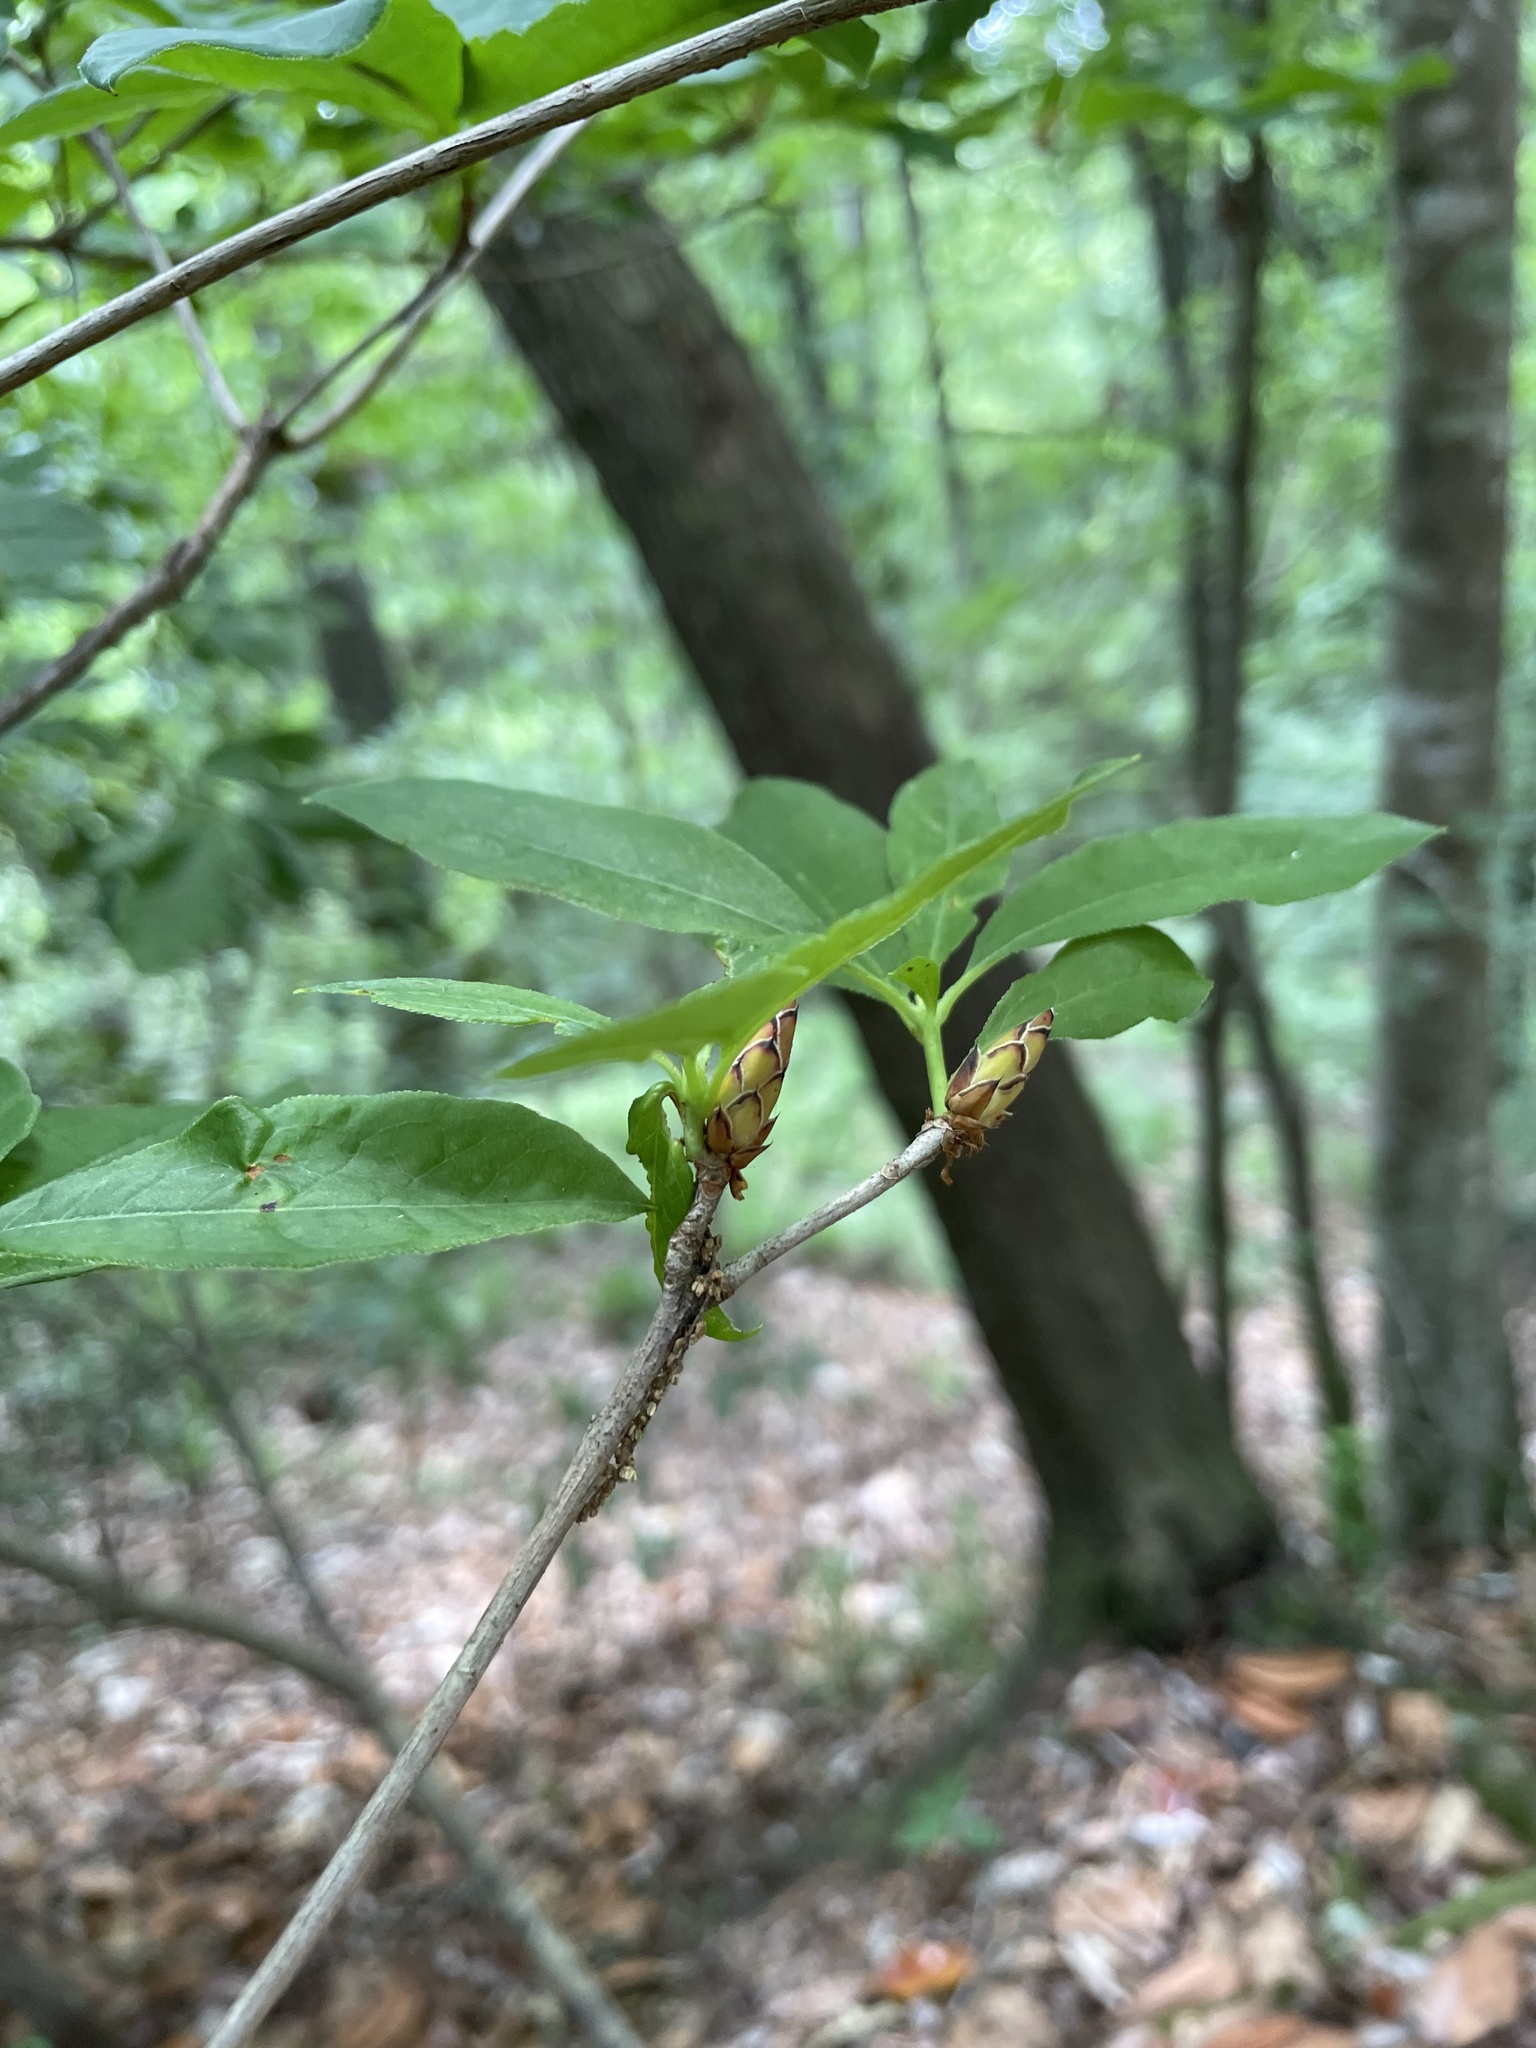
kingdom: Plantae
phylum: Tracheophyta
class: Magnoliopsida
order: Ericales
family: Ericaceae
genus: Rhododendron
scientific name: Rhododendron prunifolium
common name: Plum-leaf azalea
